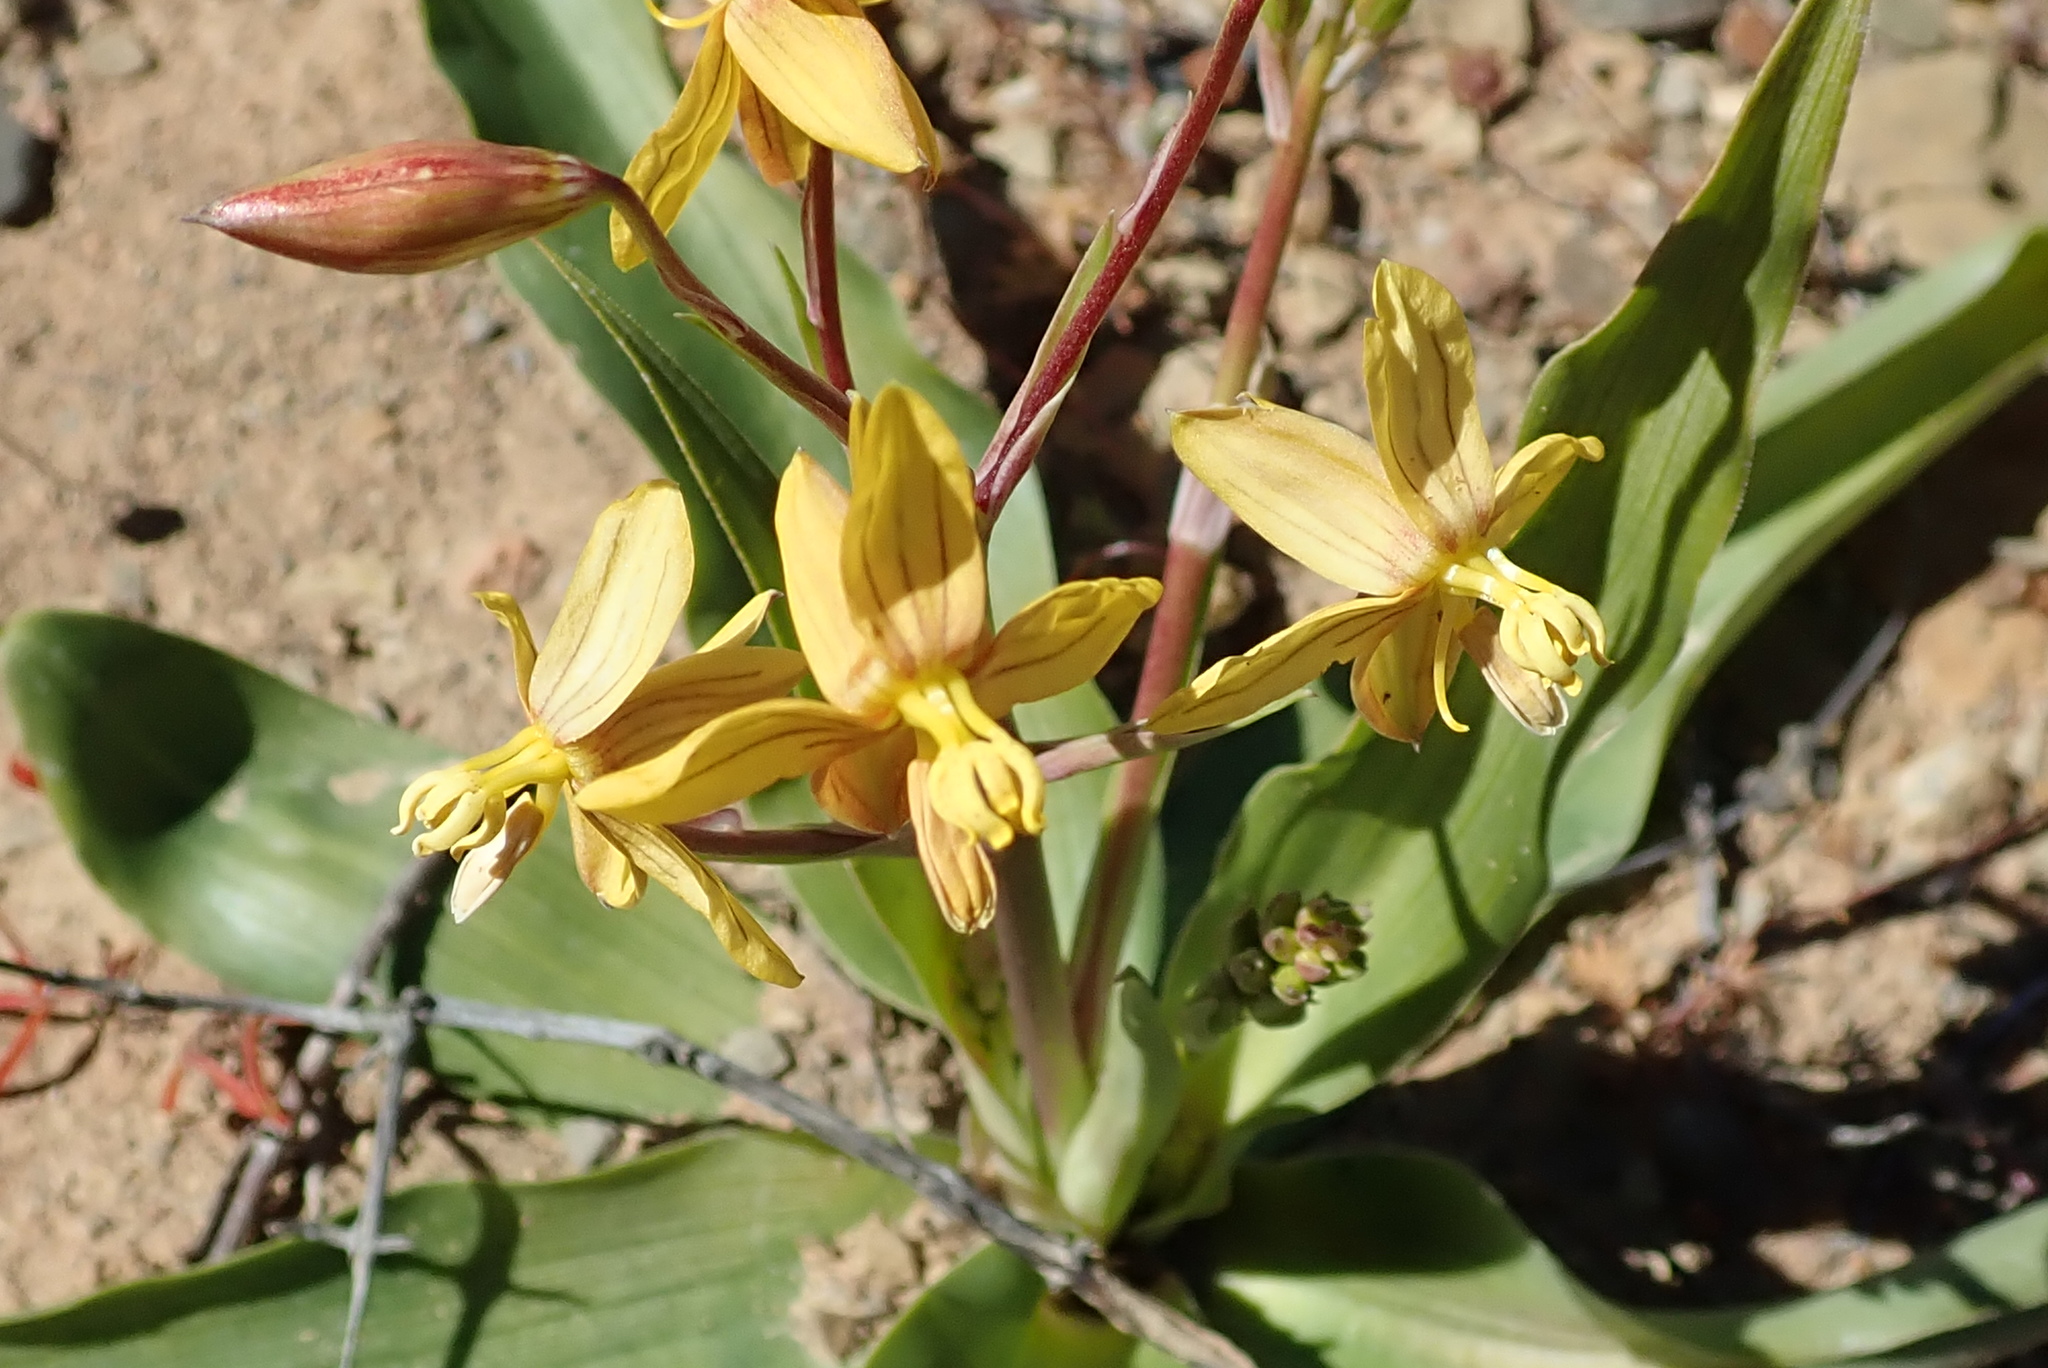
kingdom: Plantae
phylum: Tracheophyta
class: Liliopsida
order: Asparagales
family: Tecophilaeaceae
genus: Cyanella
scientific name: Cyanella lutea
